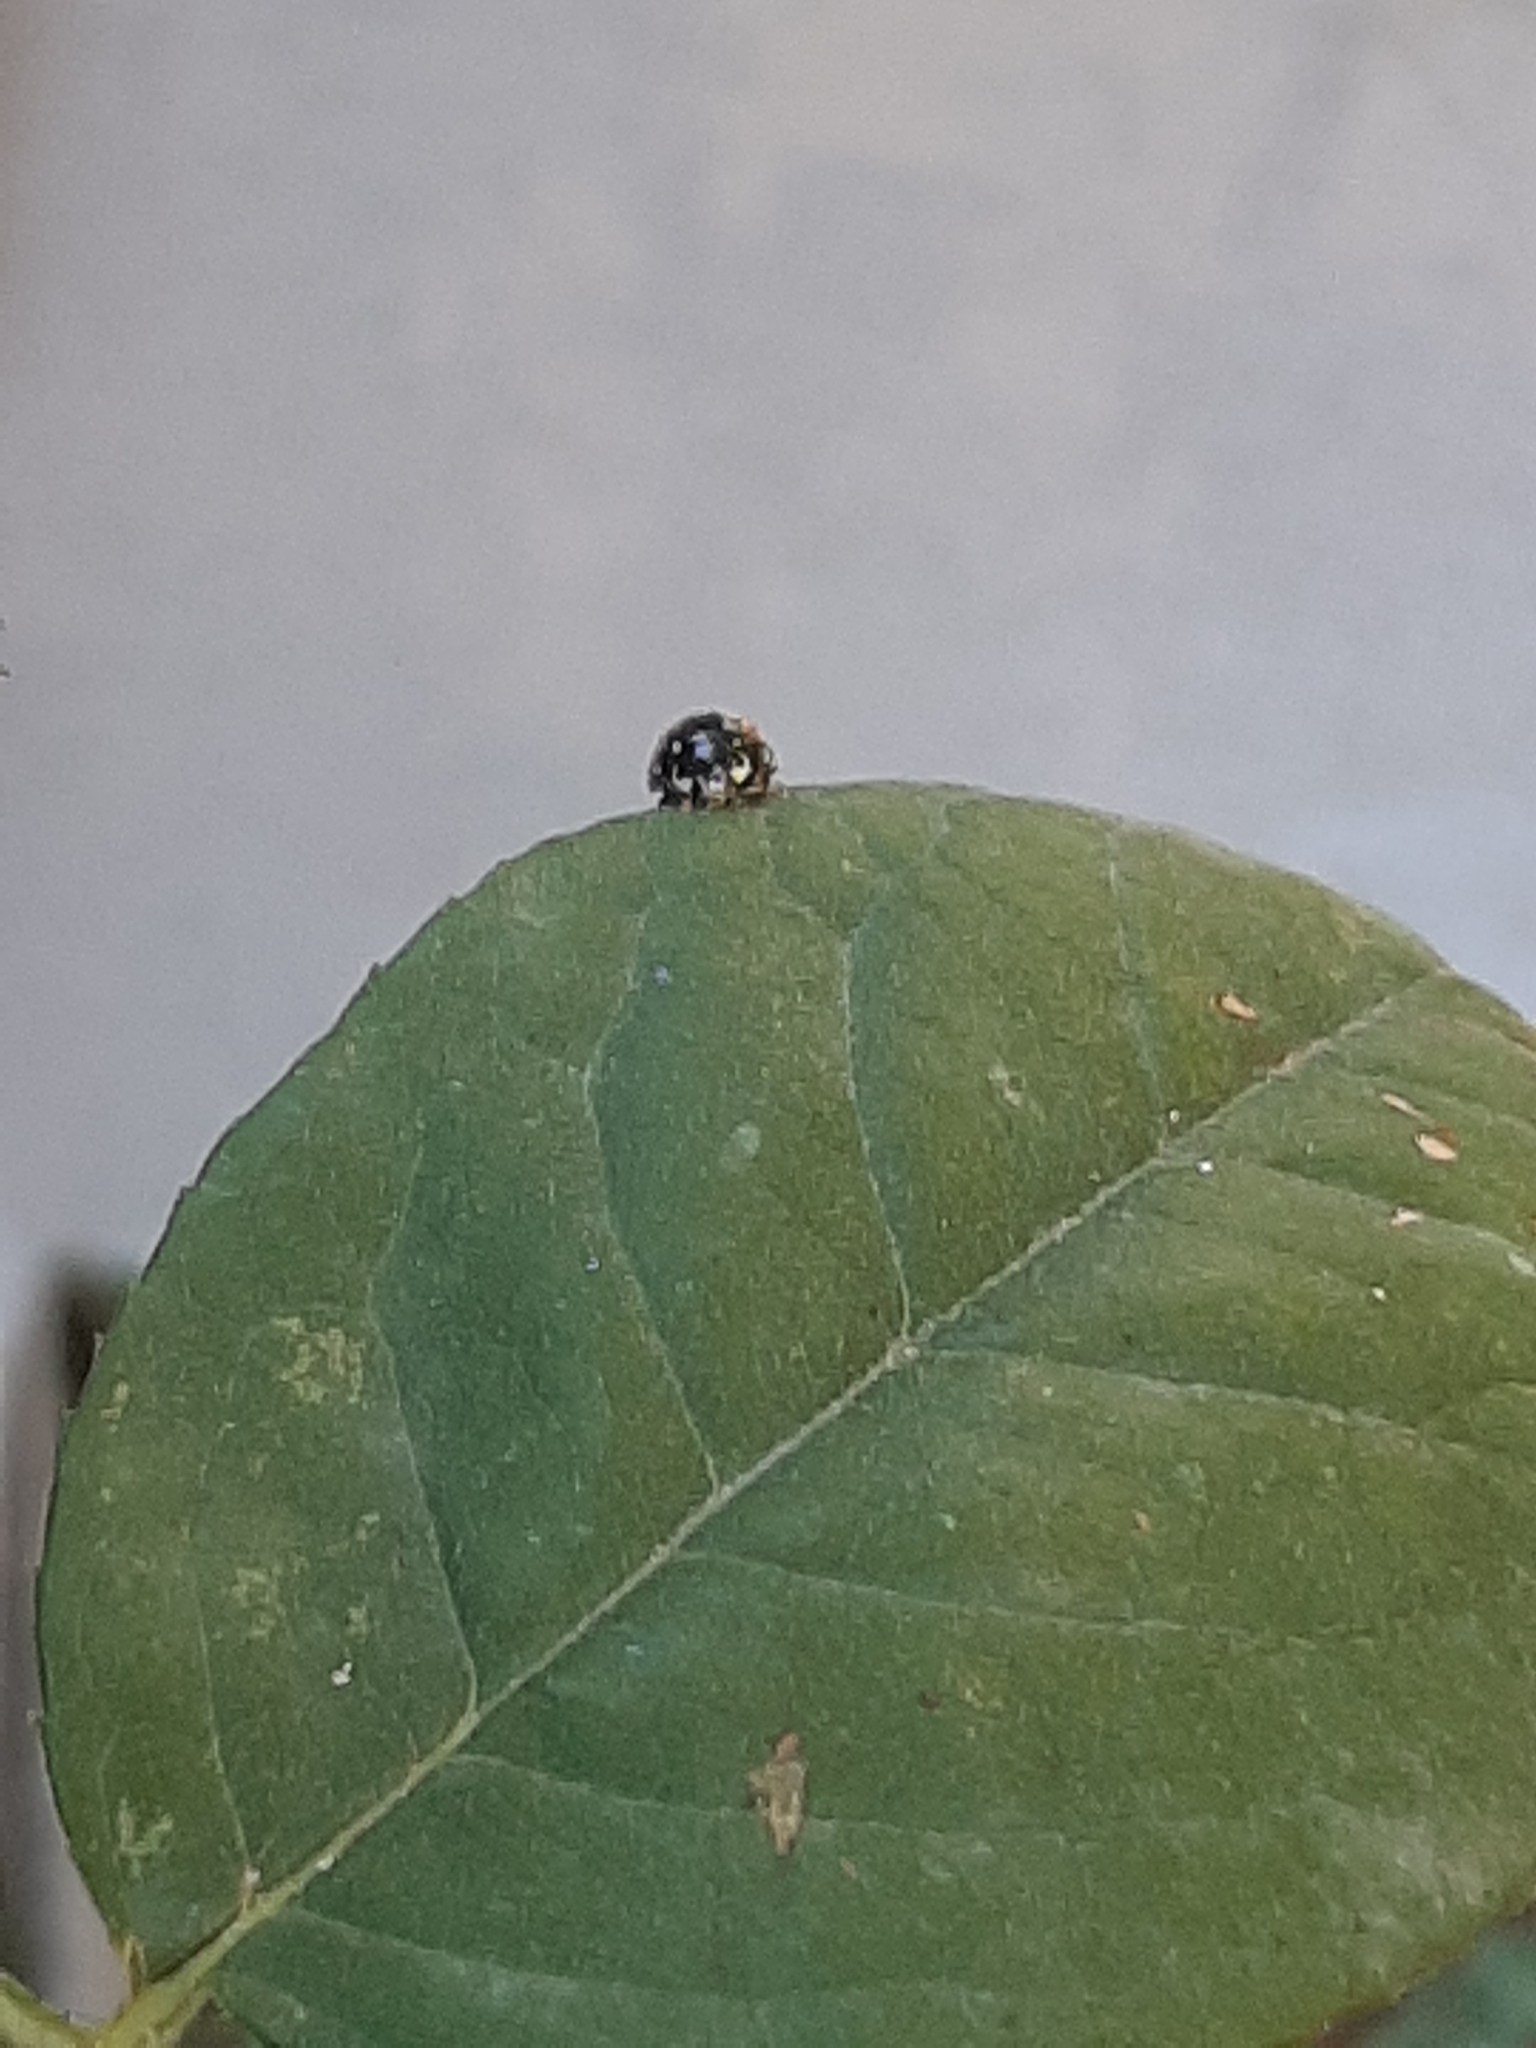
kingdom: Animalia
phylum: Arthropoda
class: Insecta
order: Coleoptera
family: Coccinellidae
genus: Olla
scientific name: Olla v-nigrum
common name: Ashy gray lady beetle
